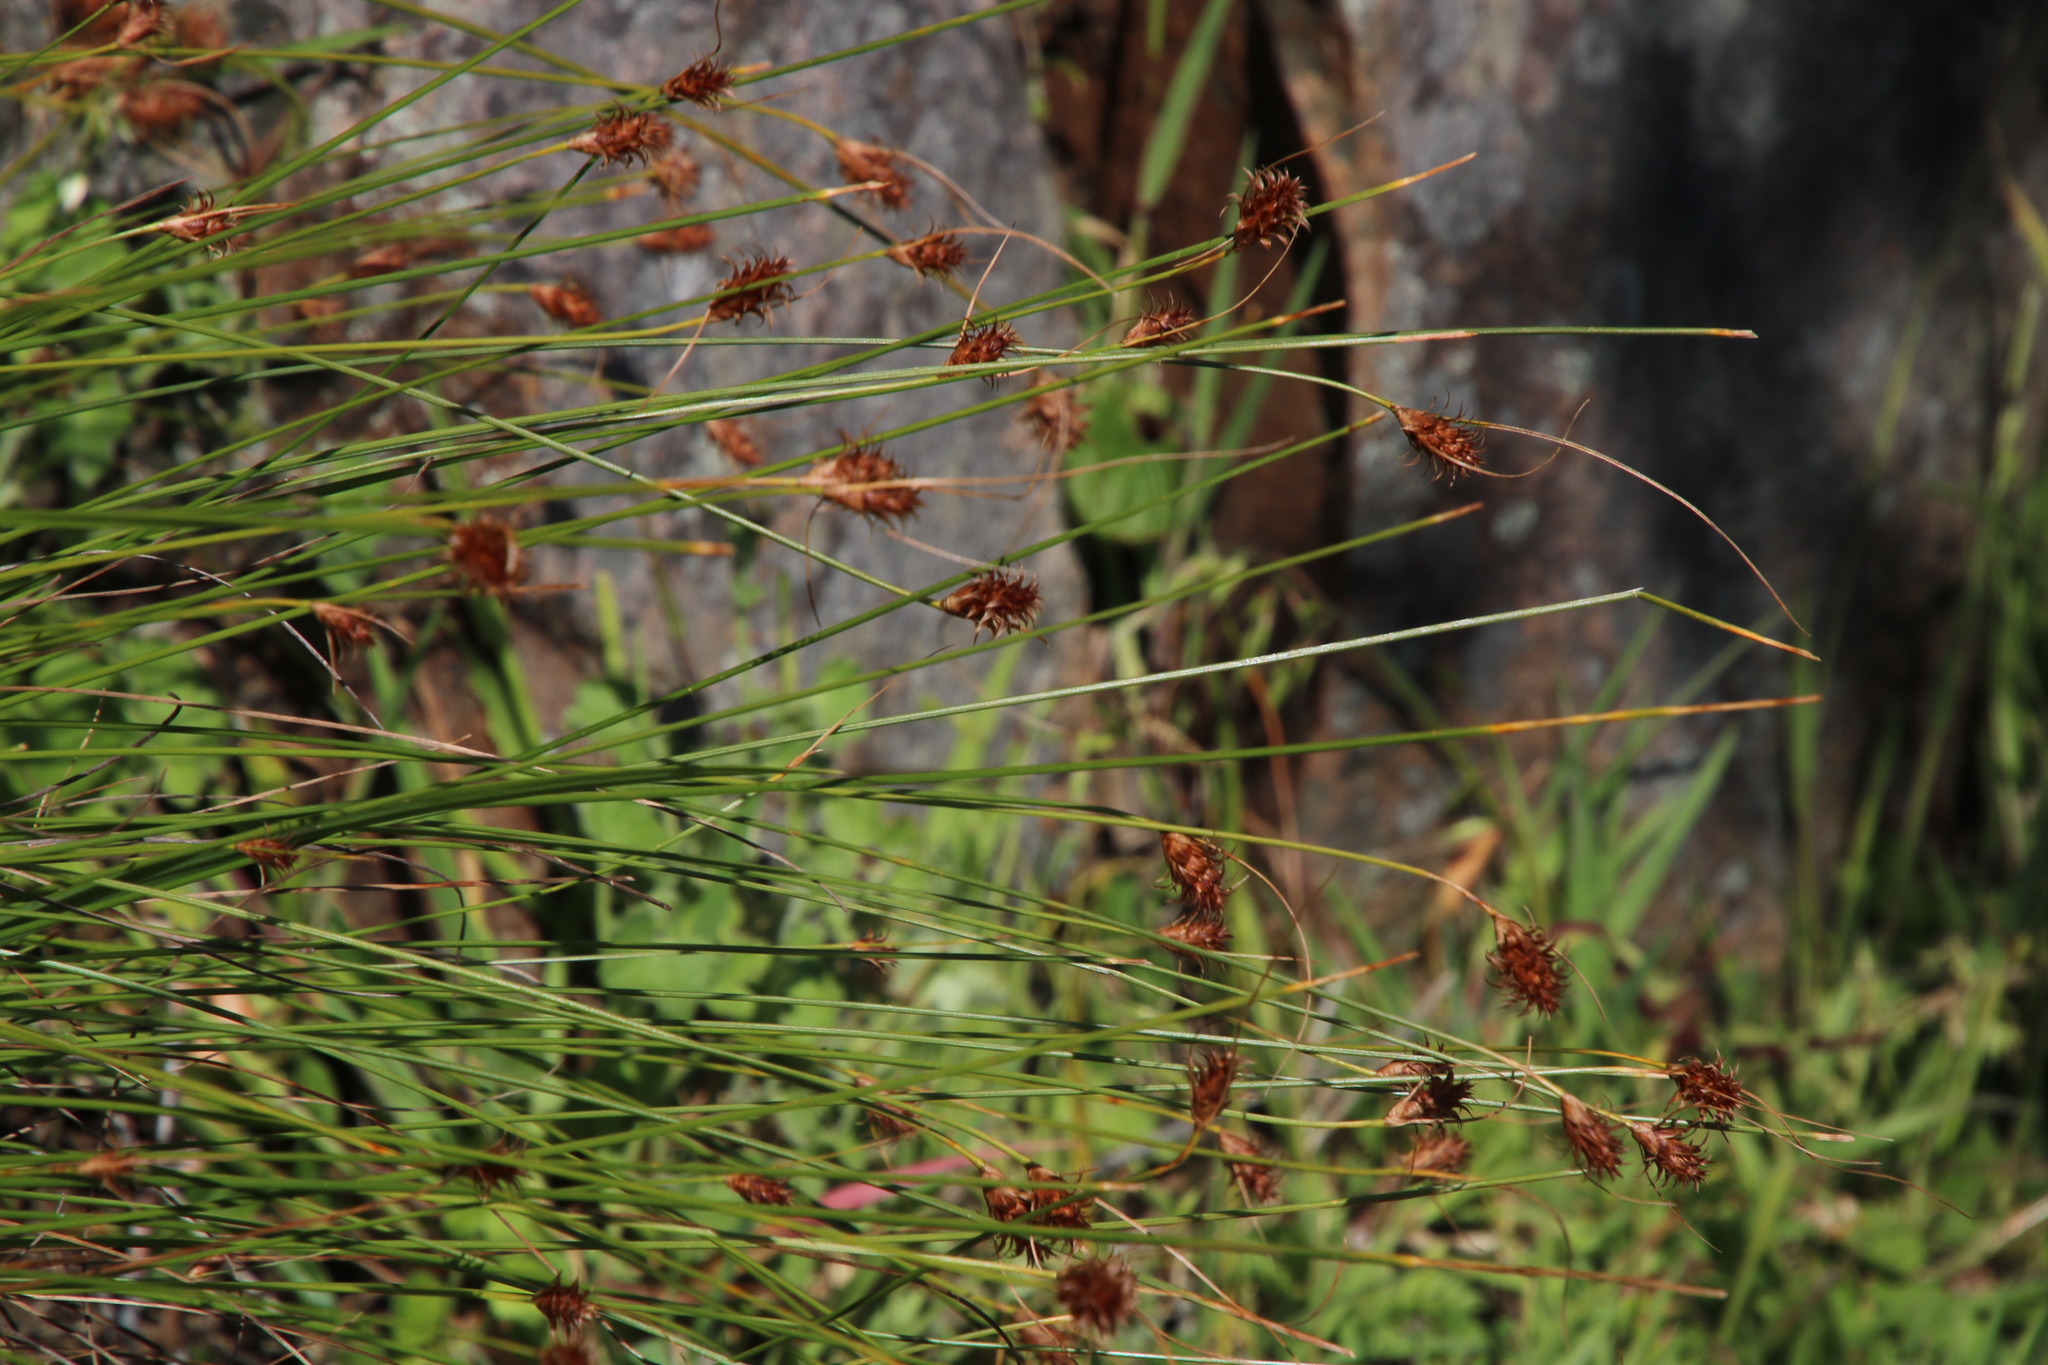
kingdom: Plantae
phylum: Tracheophyta
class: Liliopsida
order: Poales
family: Cyperaceae
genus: Ficinia
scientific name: Ficinia nigrescens
